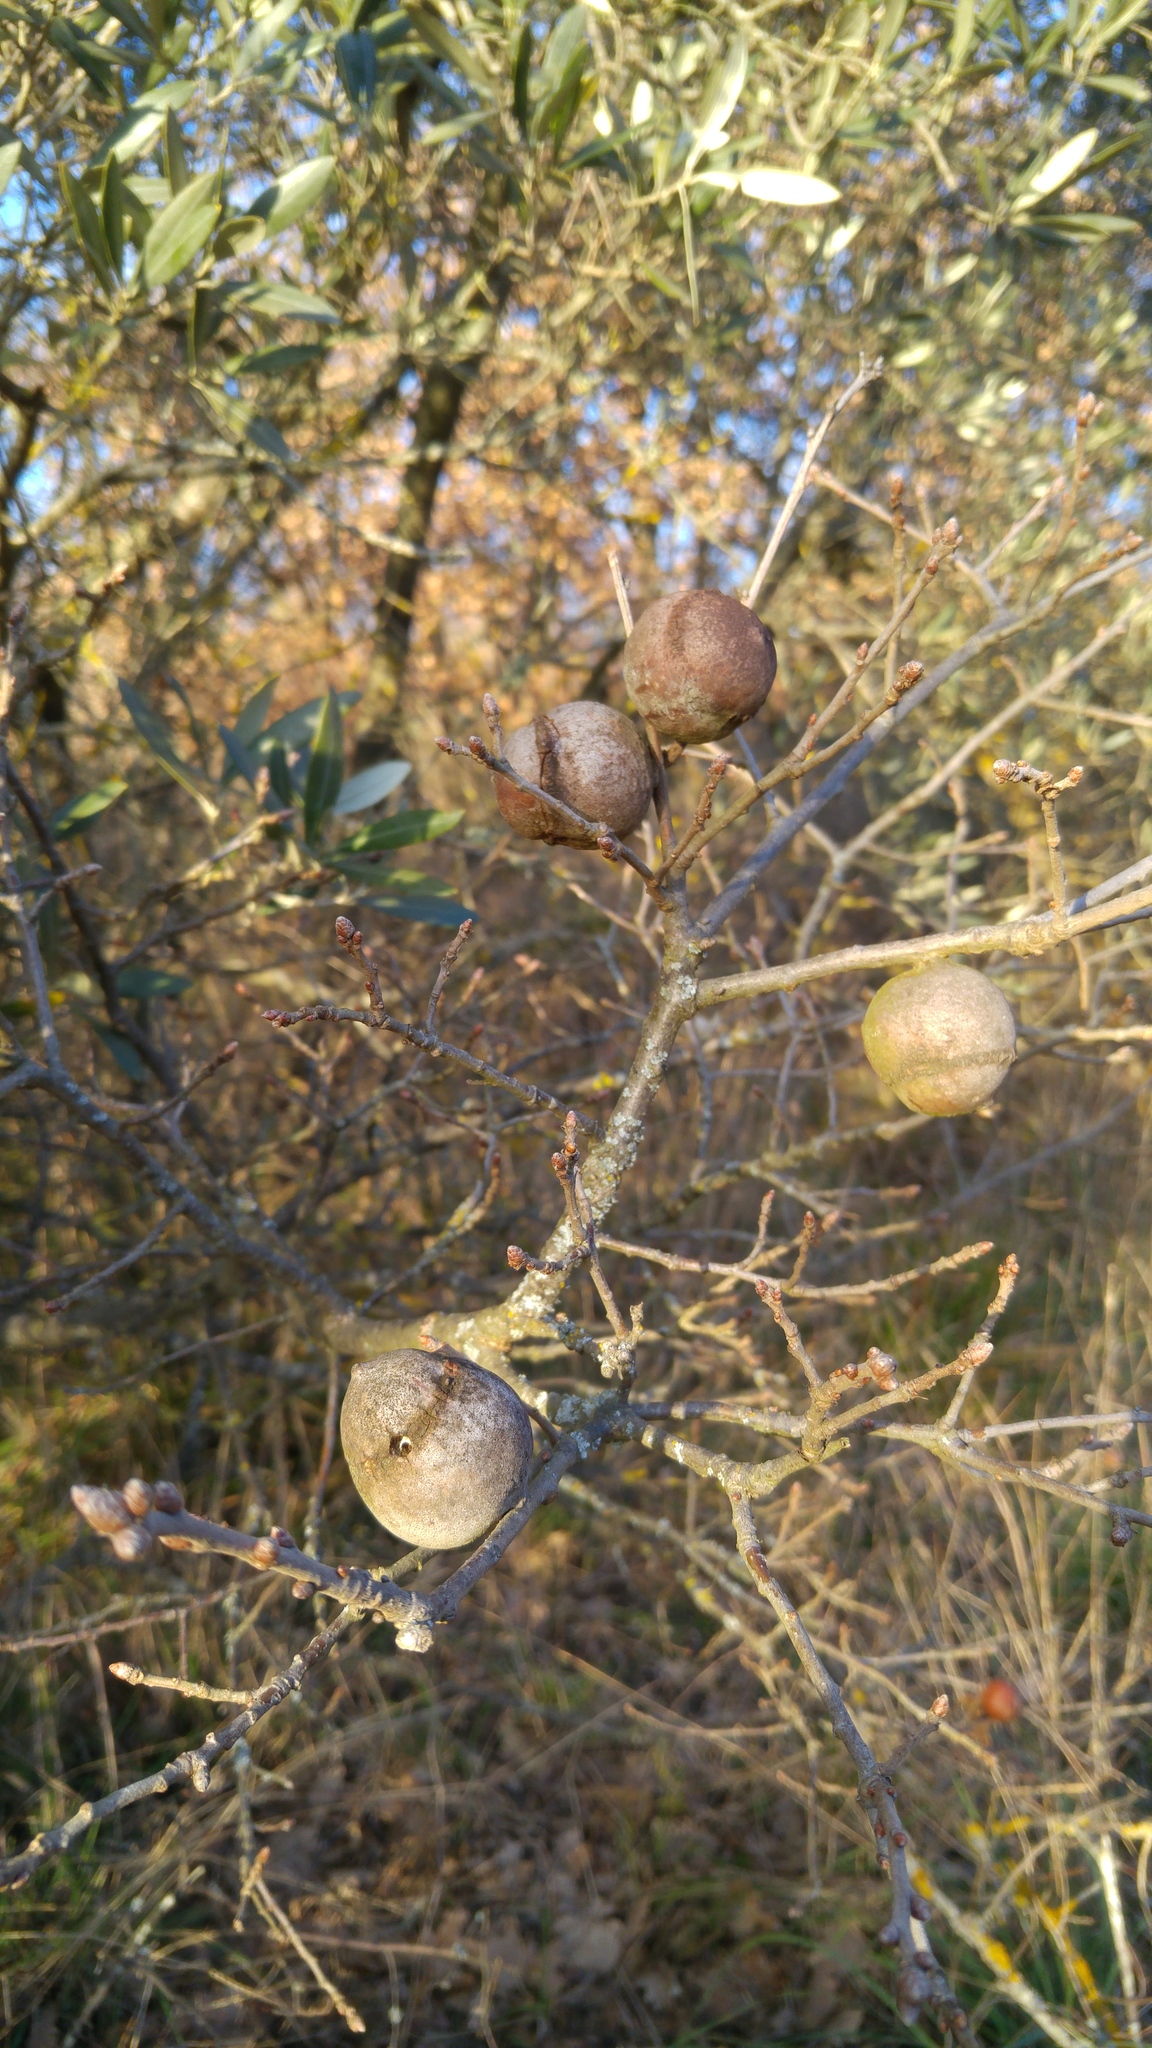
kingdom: Animalia
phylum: Arthropoda
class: Insecta
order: Hymenoptera
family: Cynipidae
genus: Andricus
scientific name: Andricus quercustozae
